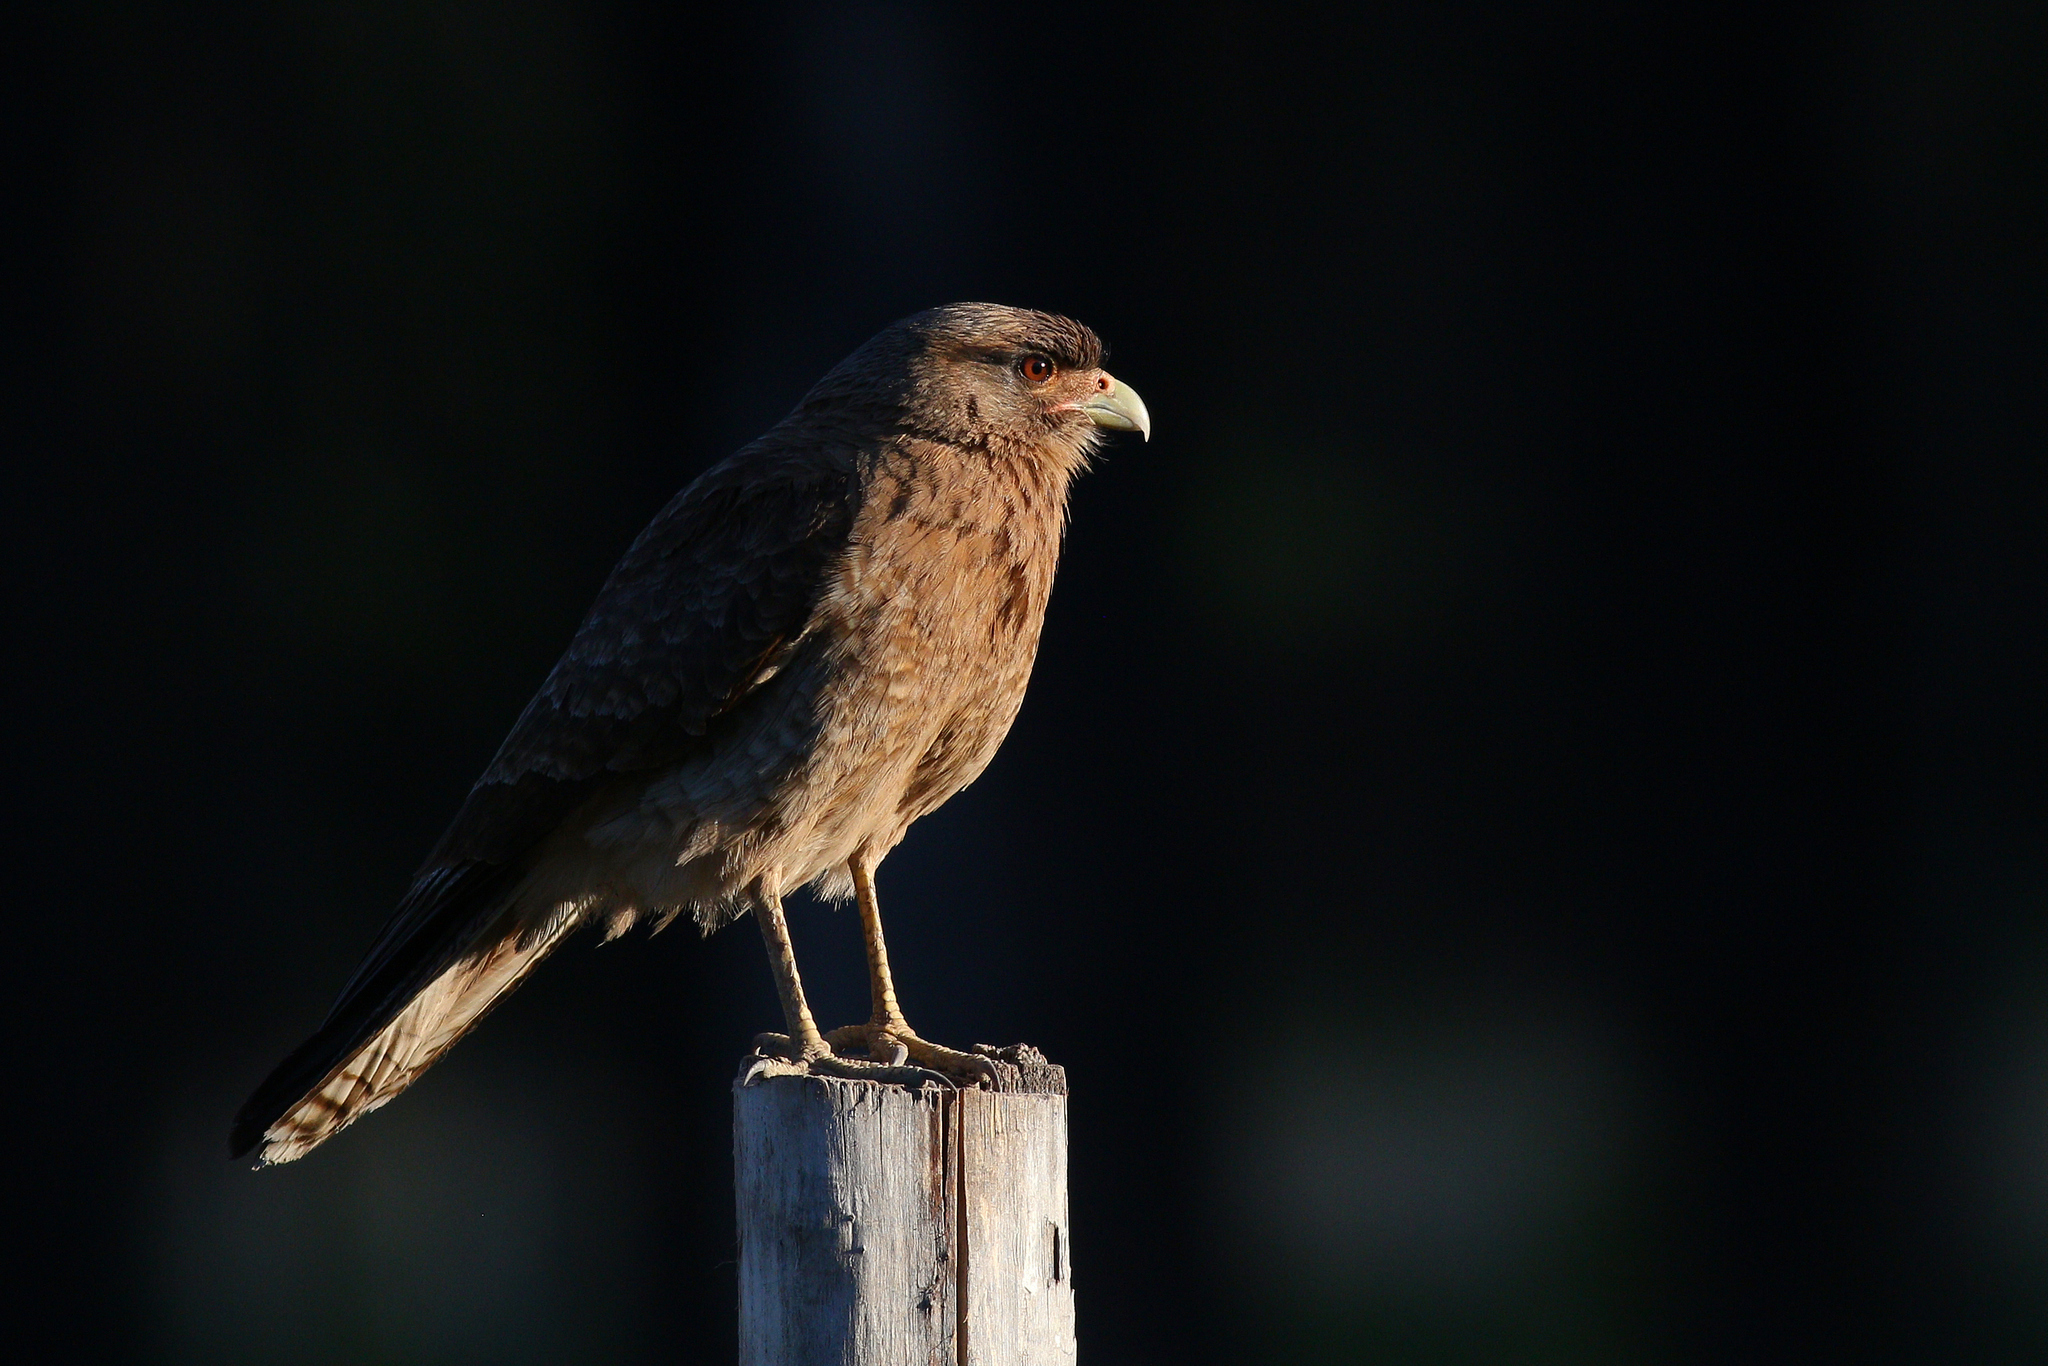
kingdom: Animalia
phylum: Chordata
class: Aves
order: Falconiformes
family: Falconidae
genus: Daptrius
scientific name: Daptrius
